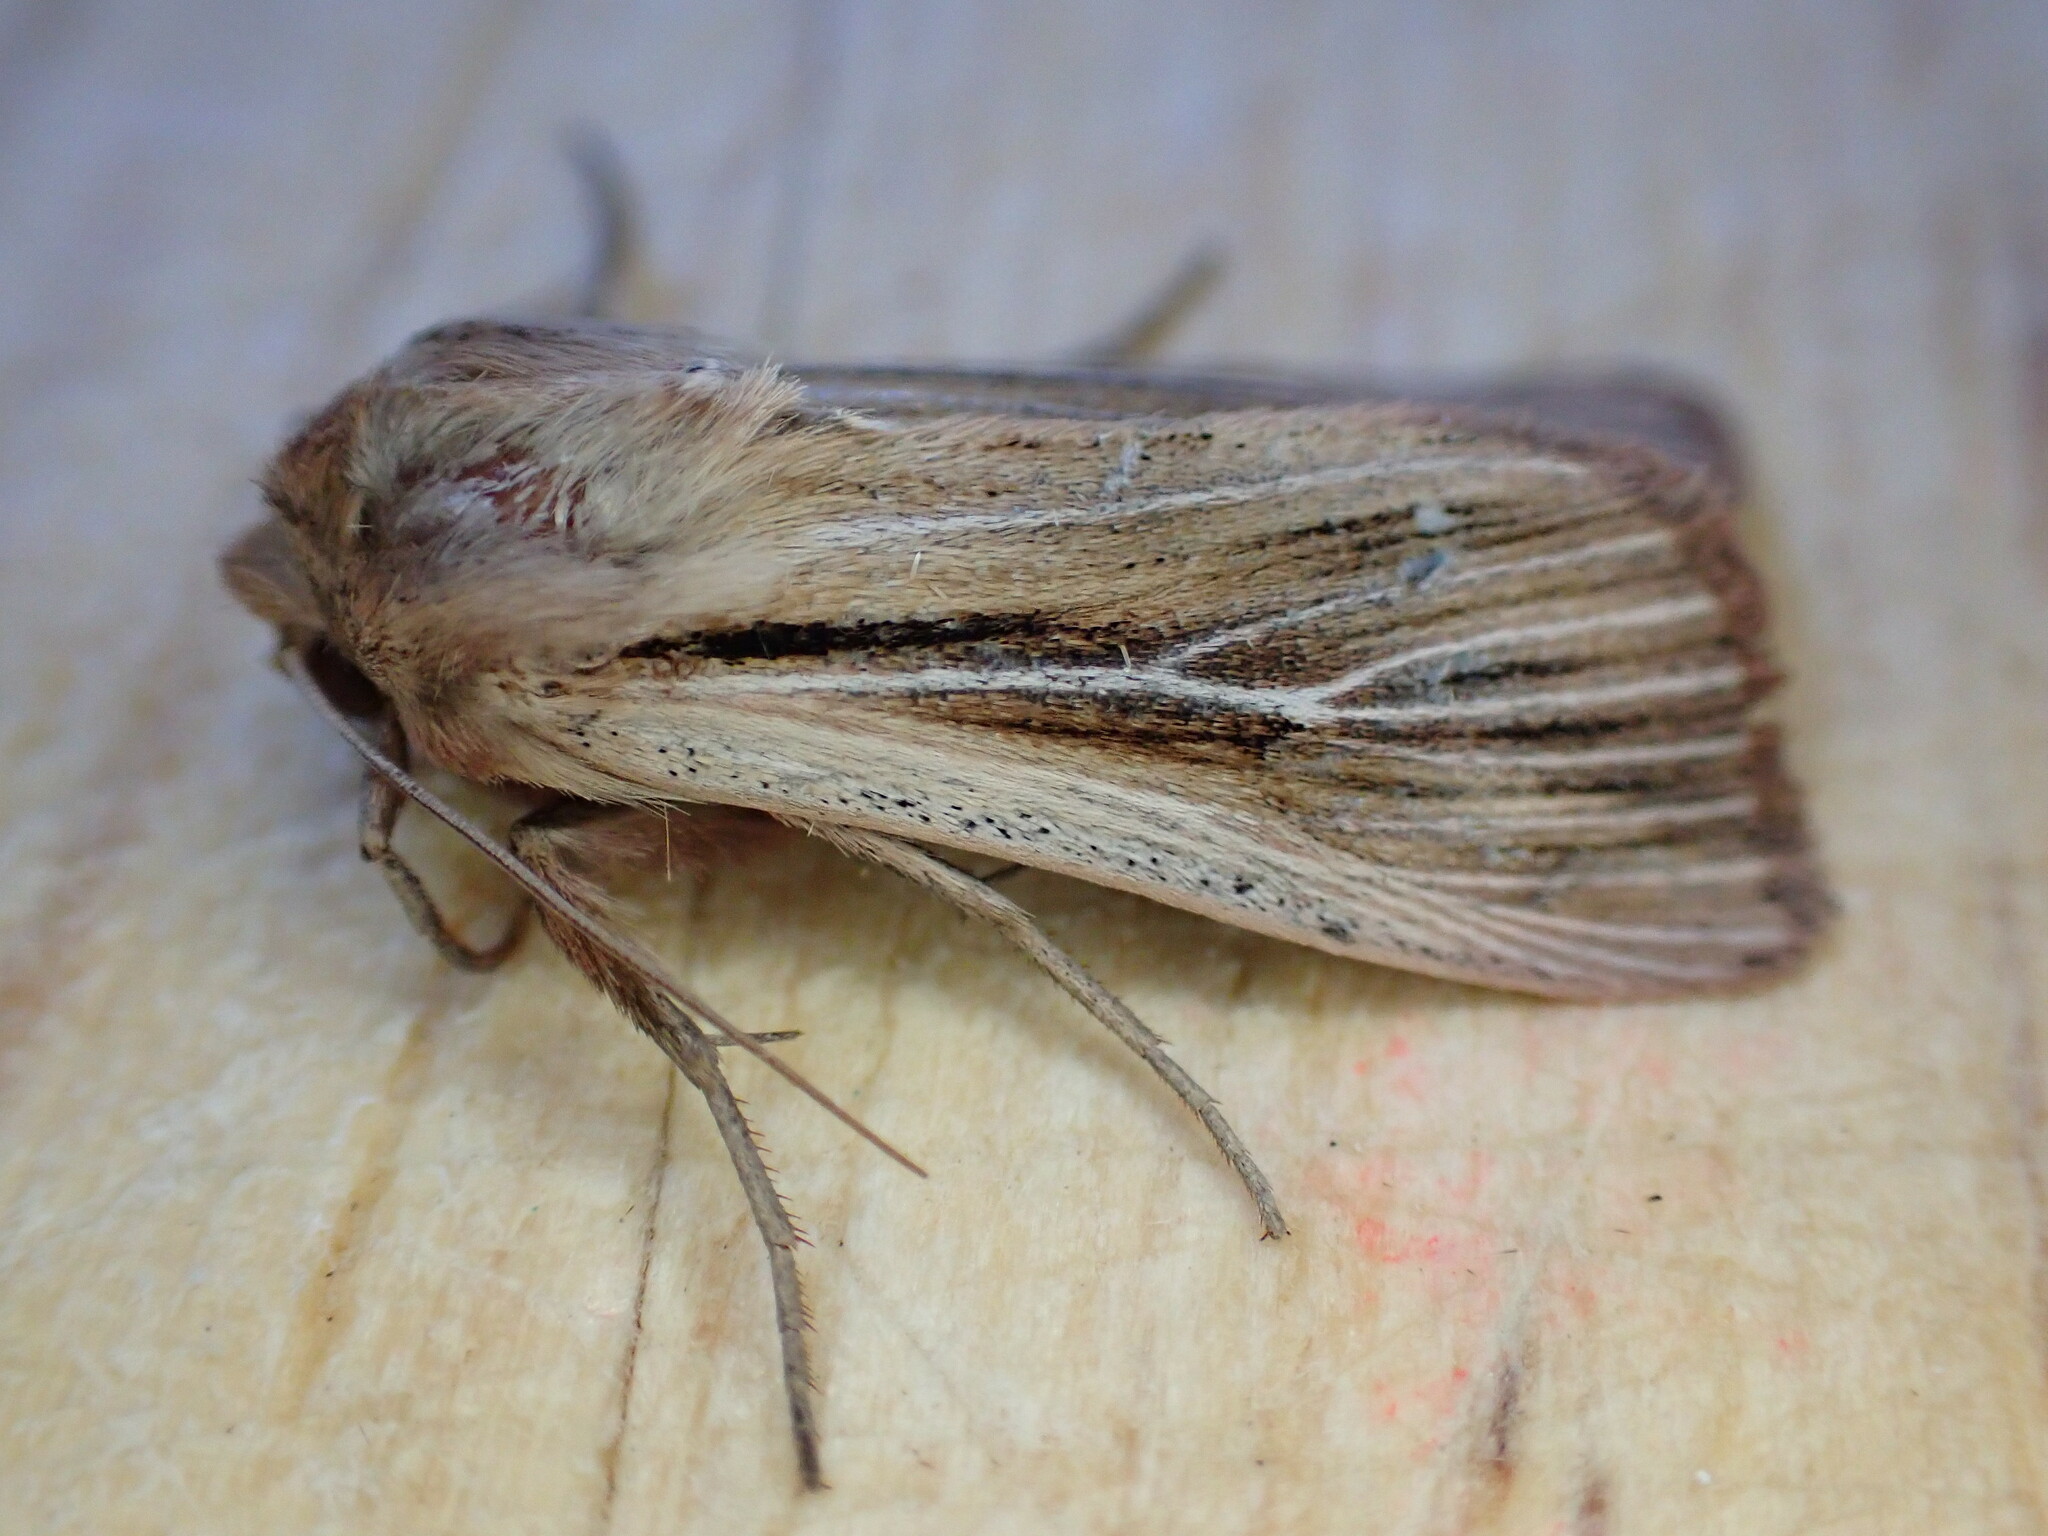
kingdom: Animalia
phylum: Arthropoda
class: Insecta
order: Lepidoptera
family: Noctuidae
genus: Leucania
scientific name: Leucania comma
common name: Shoulder-striped wainscot
